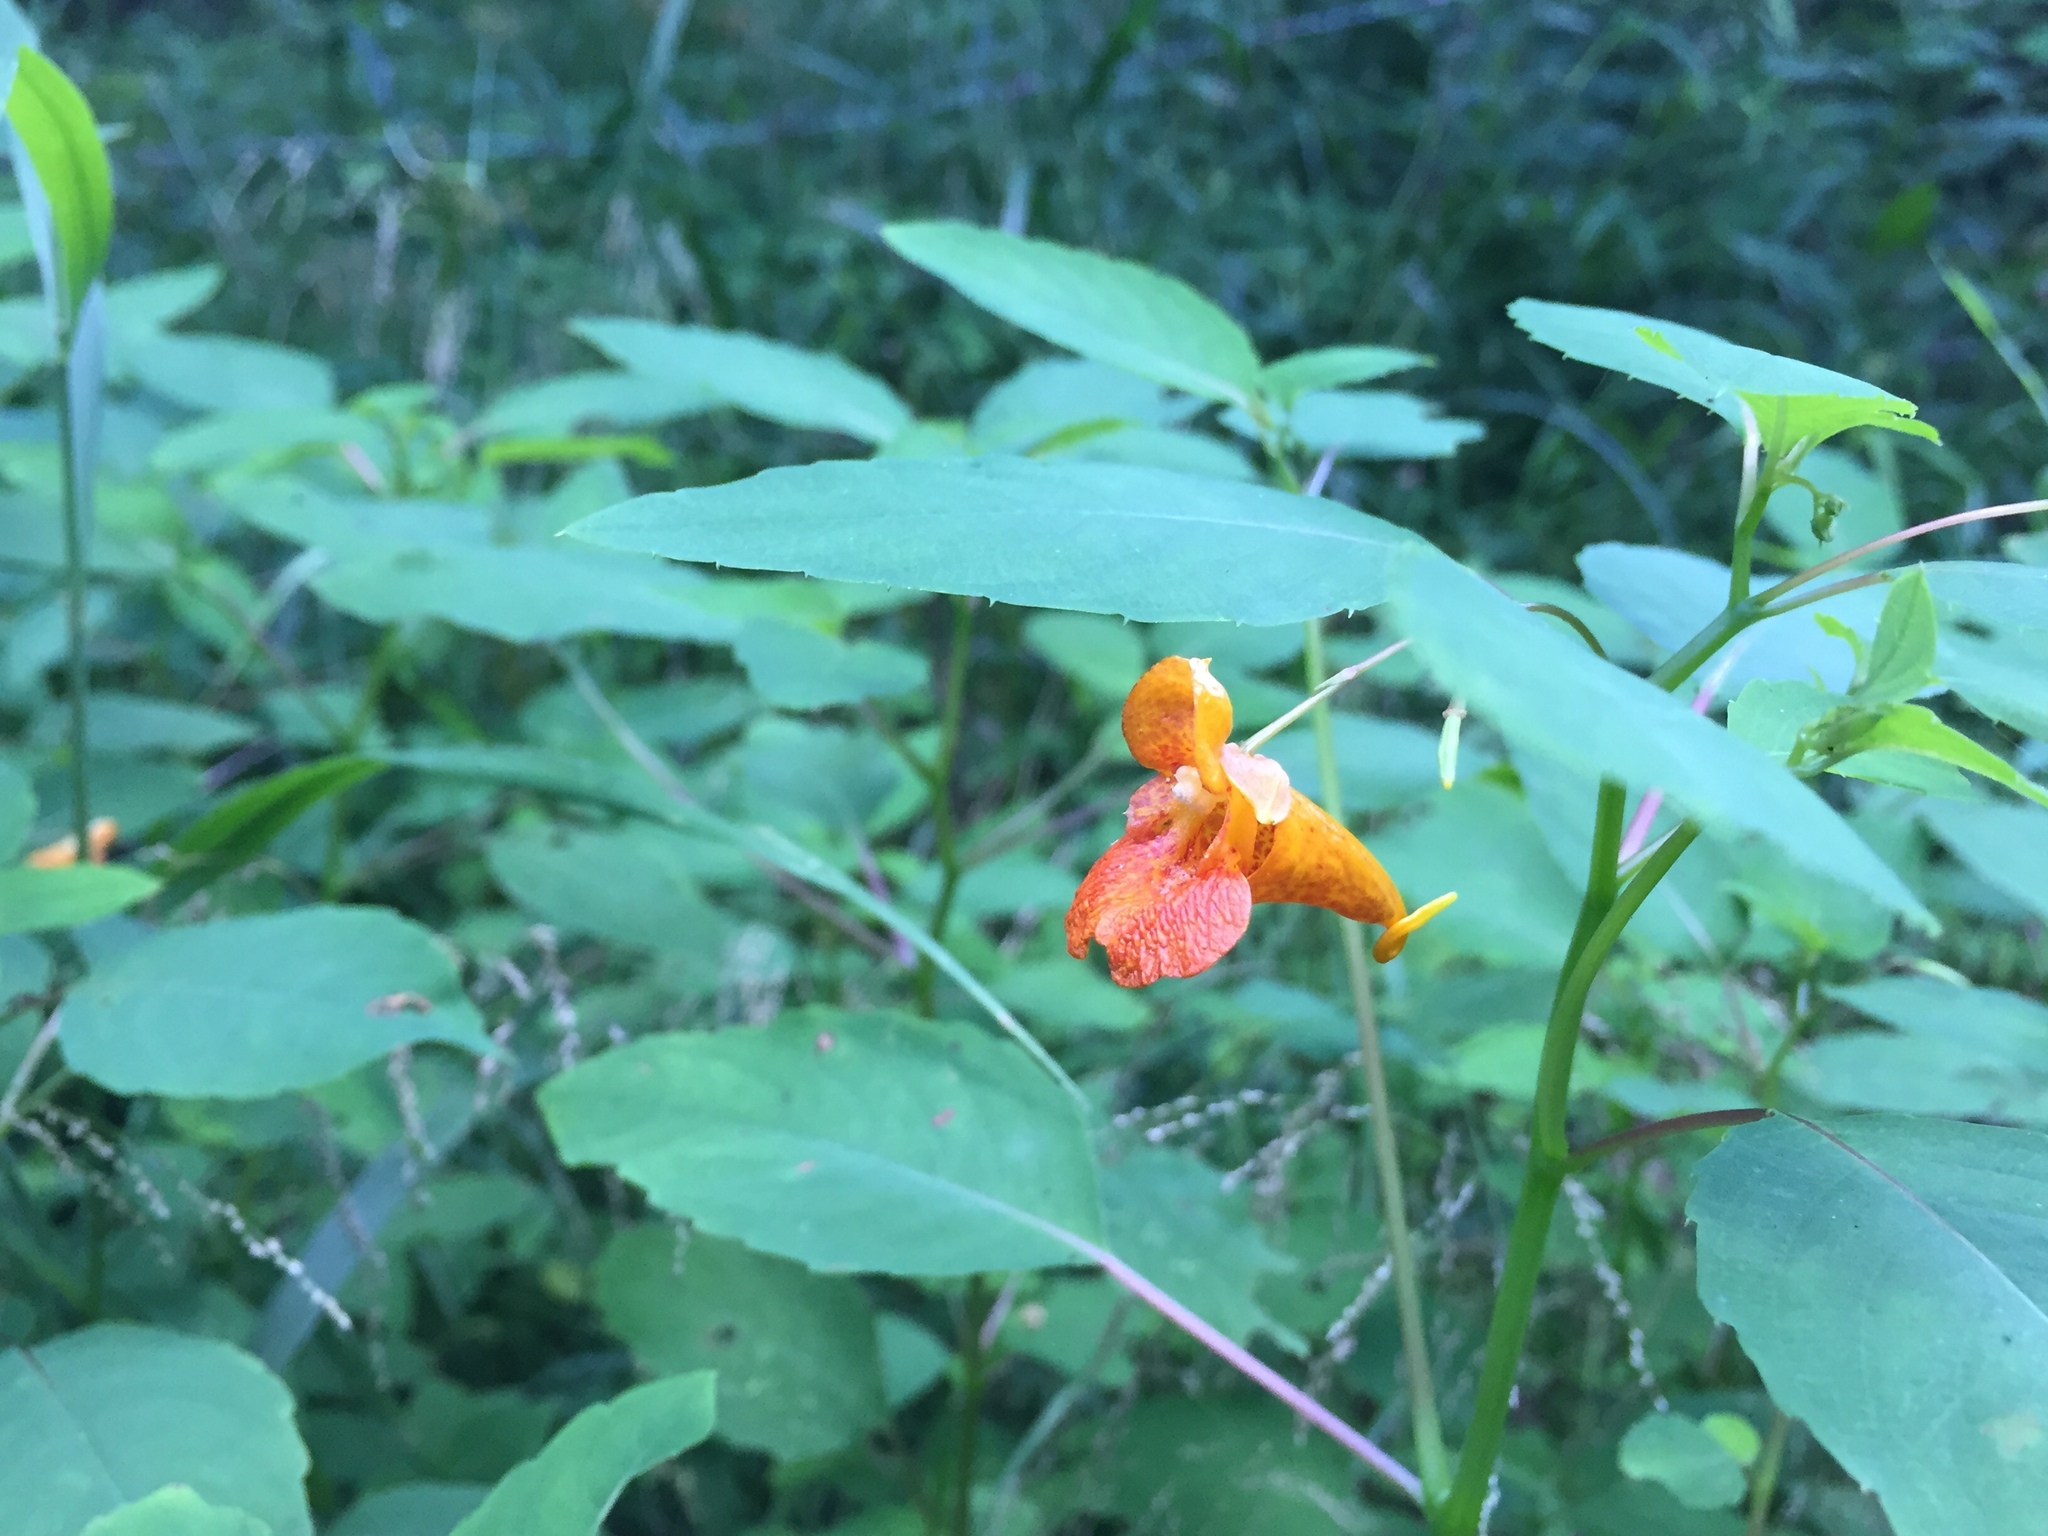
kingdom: Plantae
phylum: Tracheophyta
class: Magnoliopsida
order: Ericales
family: Balsaminaceae
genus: Impatiens
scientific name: Impatiens capensis
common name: Orange balsam
